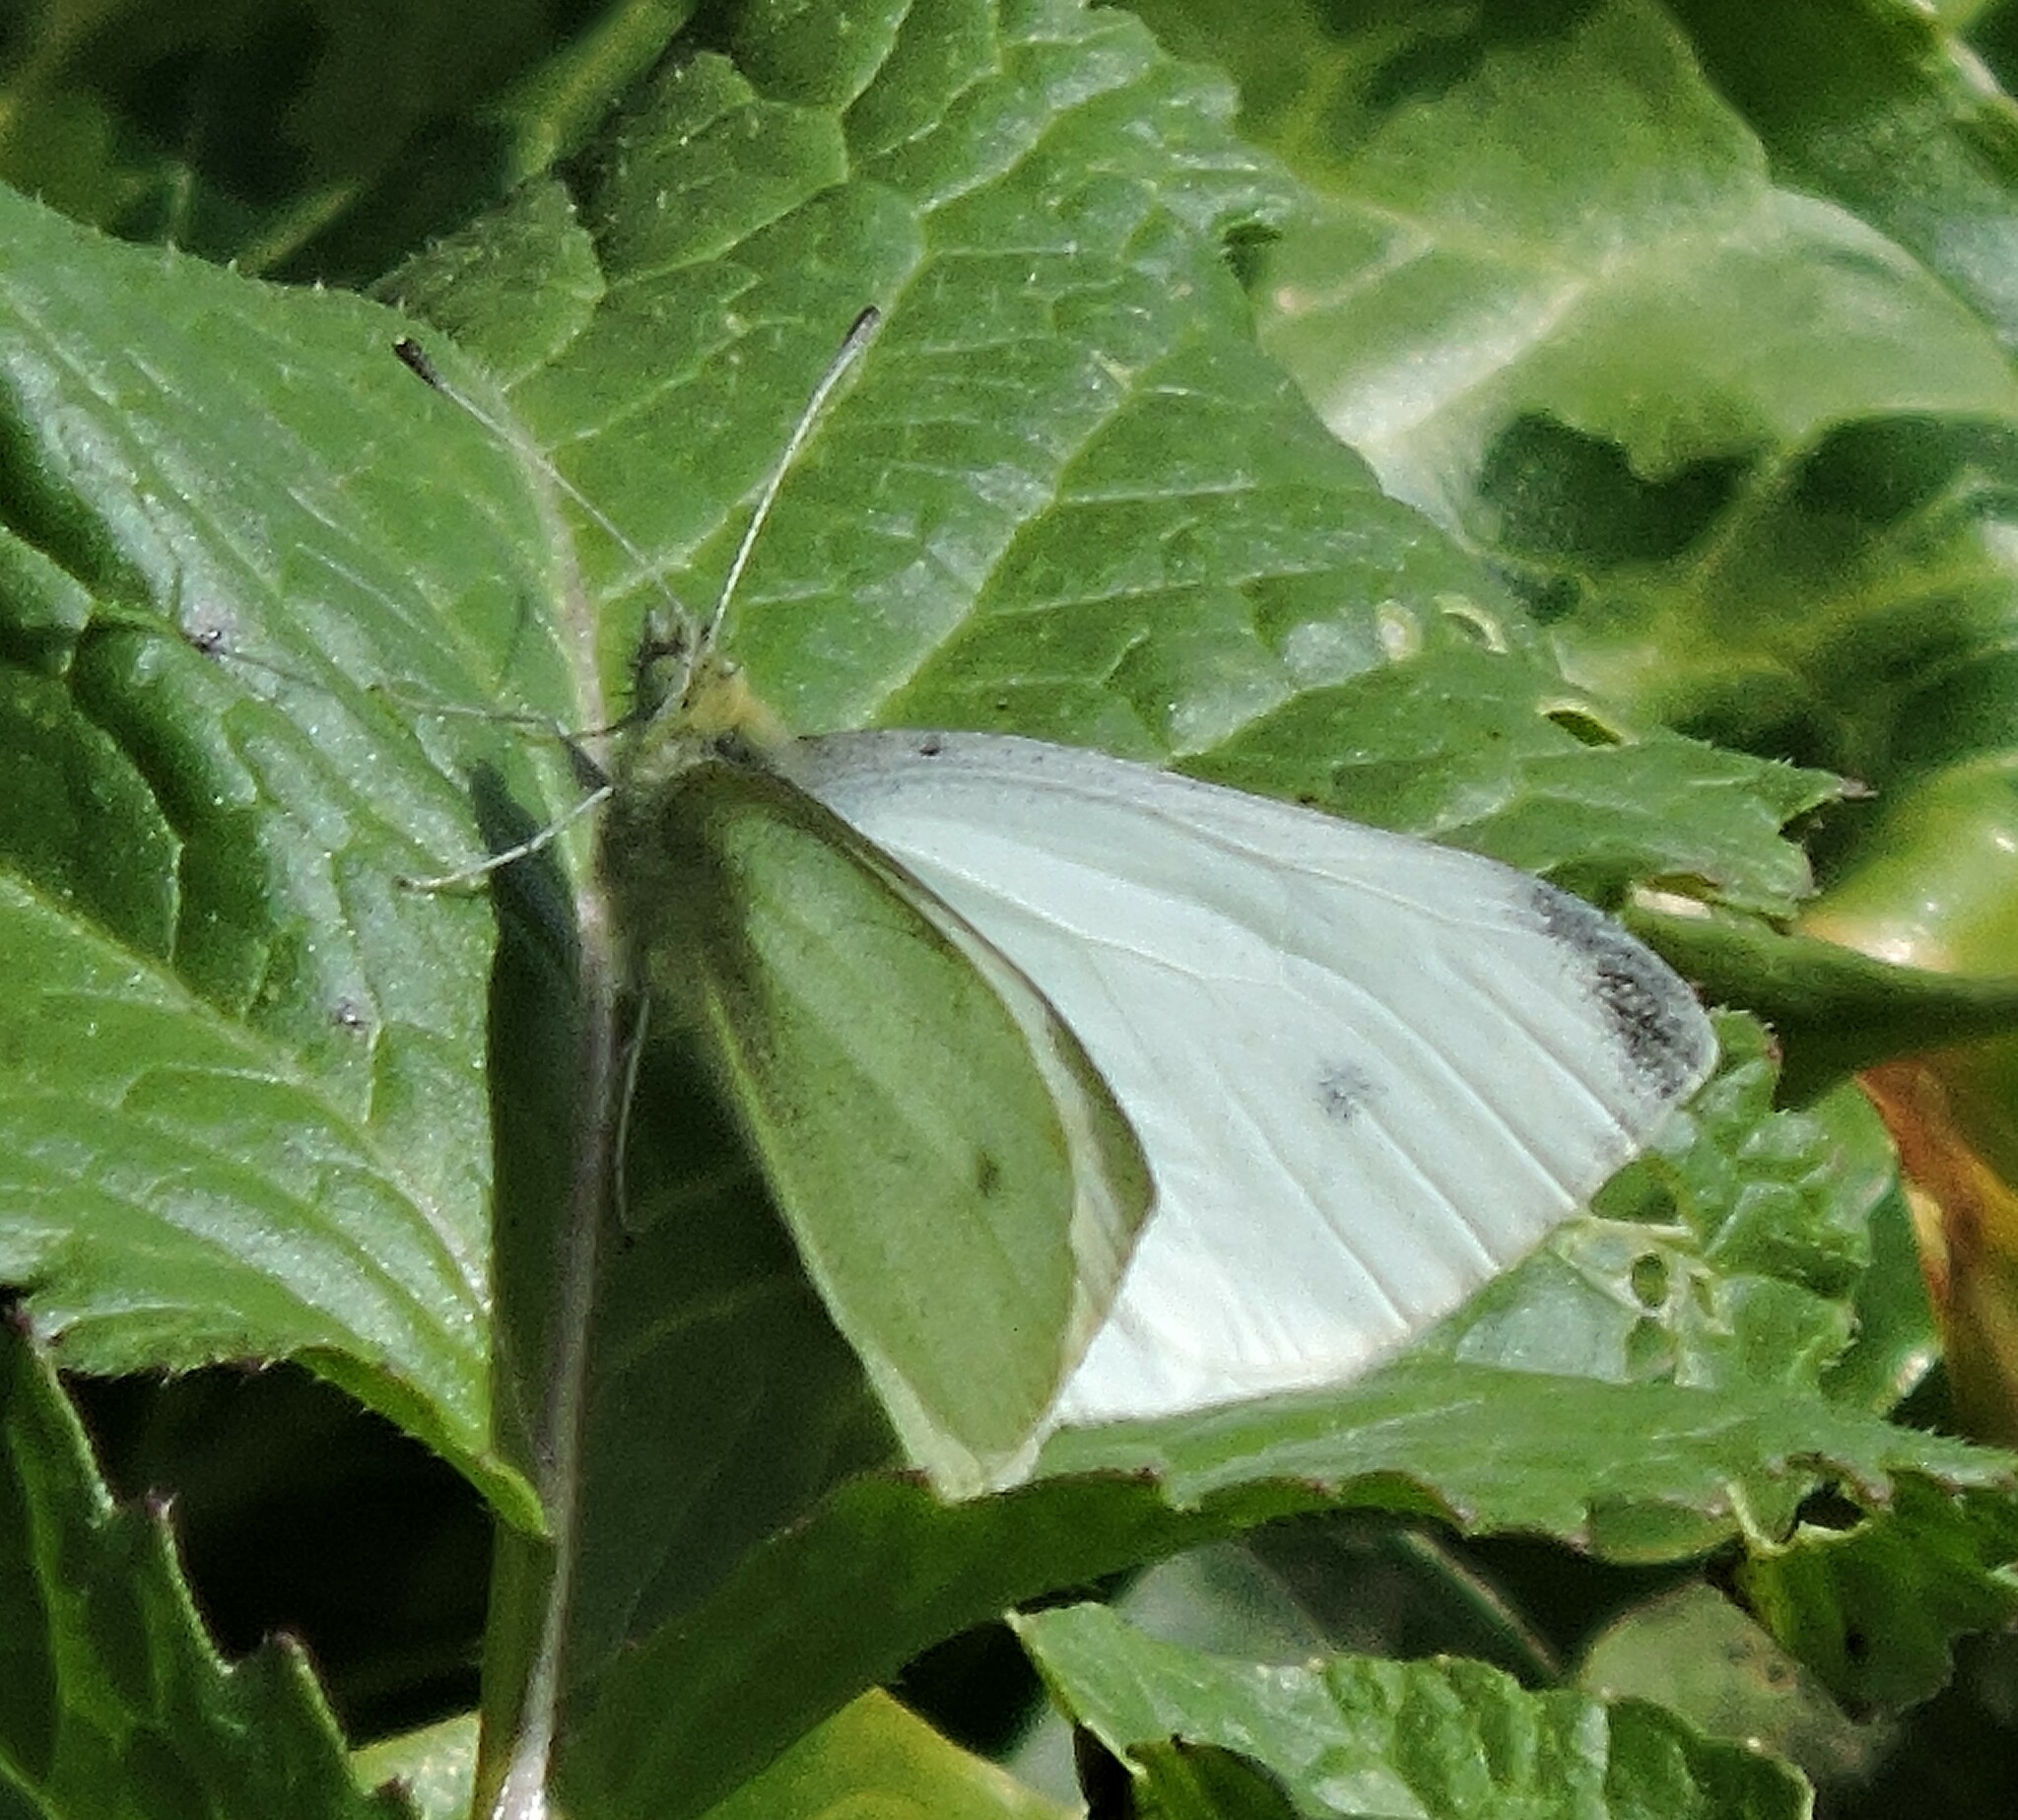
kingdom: Animalia
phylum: Arthropoda
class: Insecta
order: Lepidoptera
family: Pieridae
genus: Pieris
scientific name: Pieris rapae
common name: Small white
